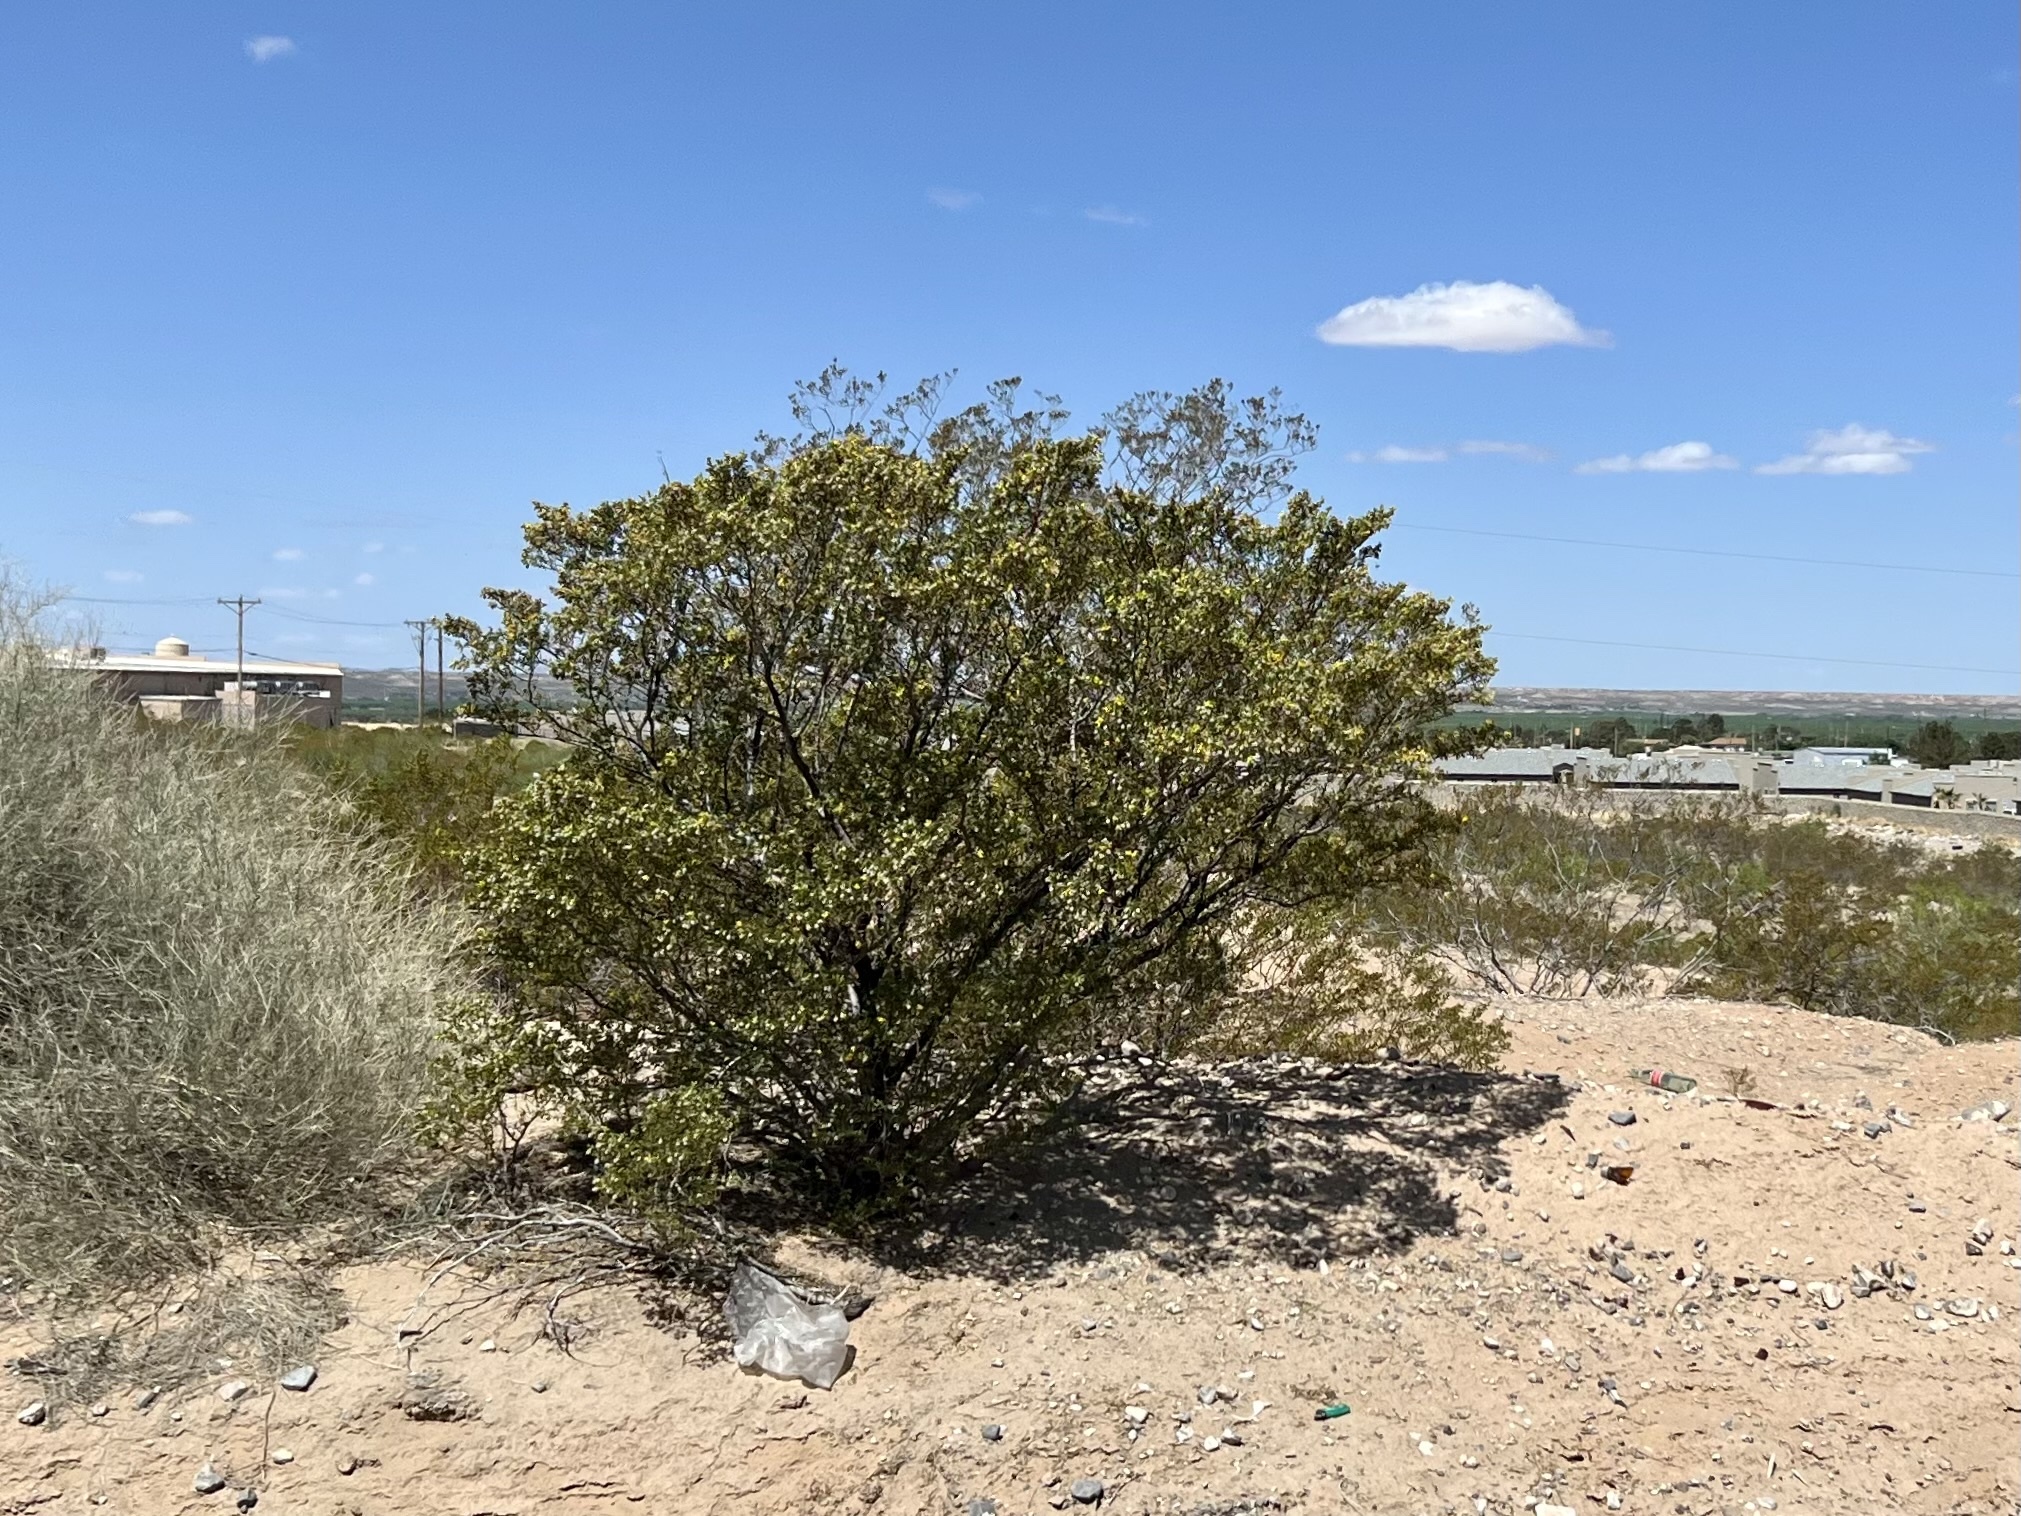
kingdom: Plantae
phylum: Tracheophyta
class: Magnoliopsida
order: Zygophyllales
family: Zygophyllaceae
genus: Larrea
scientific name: Larrea tridentata
